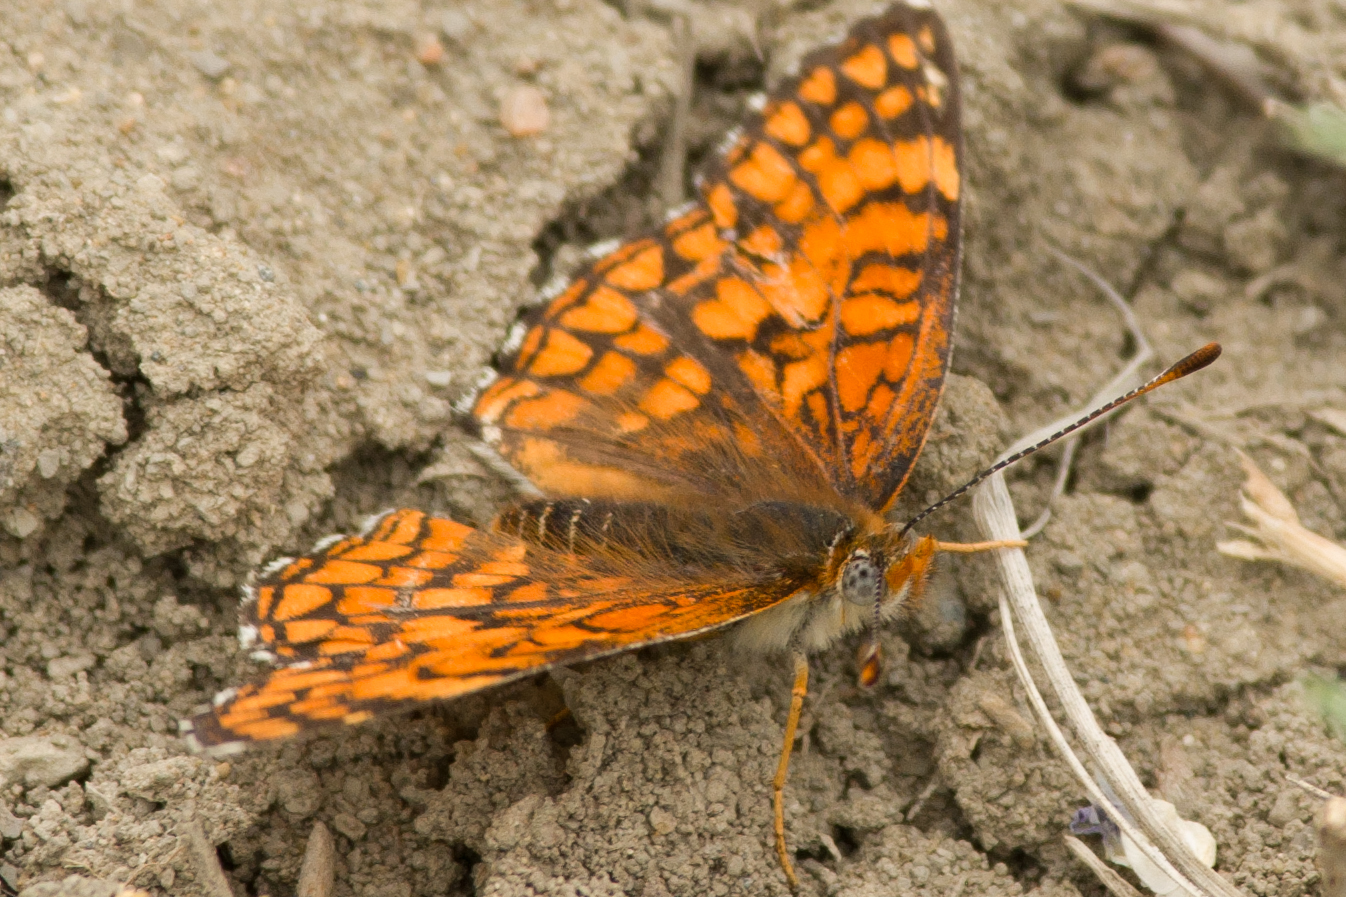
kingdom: Animalia
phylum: Arthropoda
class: Insecta
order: Lepidoptera
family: Nymphalidae
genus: Chlosyne
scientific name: Chlosyne acastus
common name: Sagebrush checkerspot
